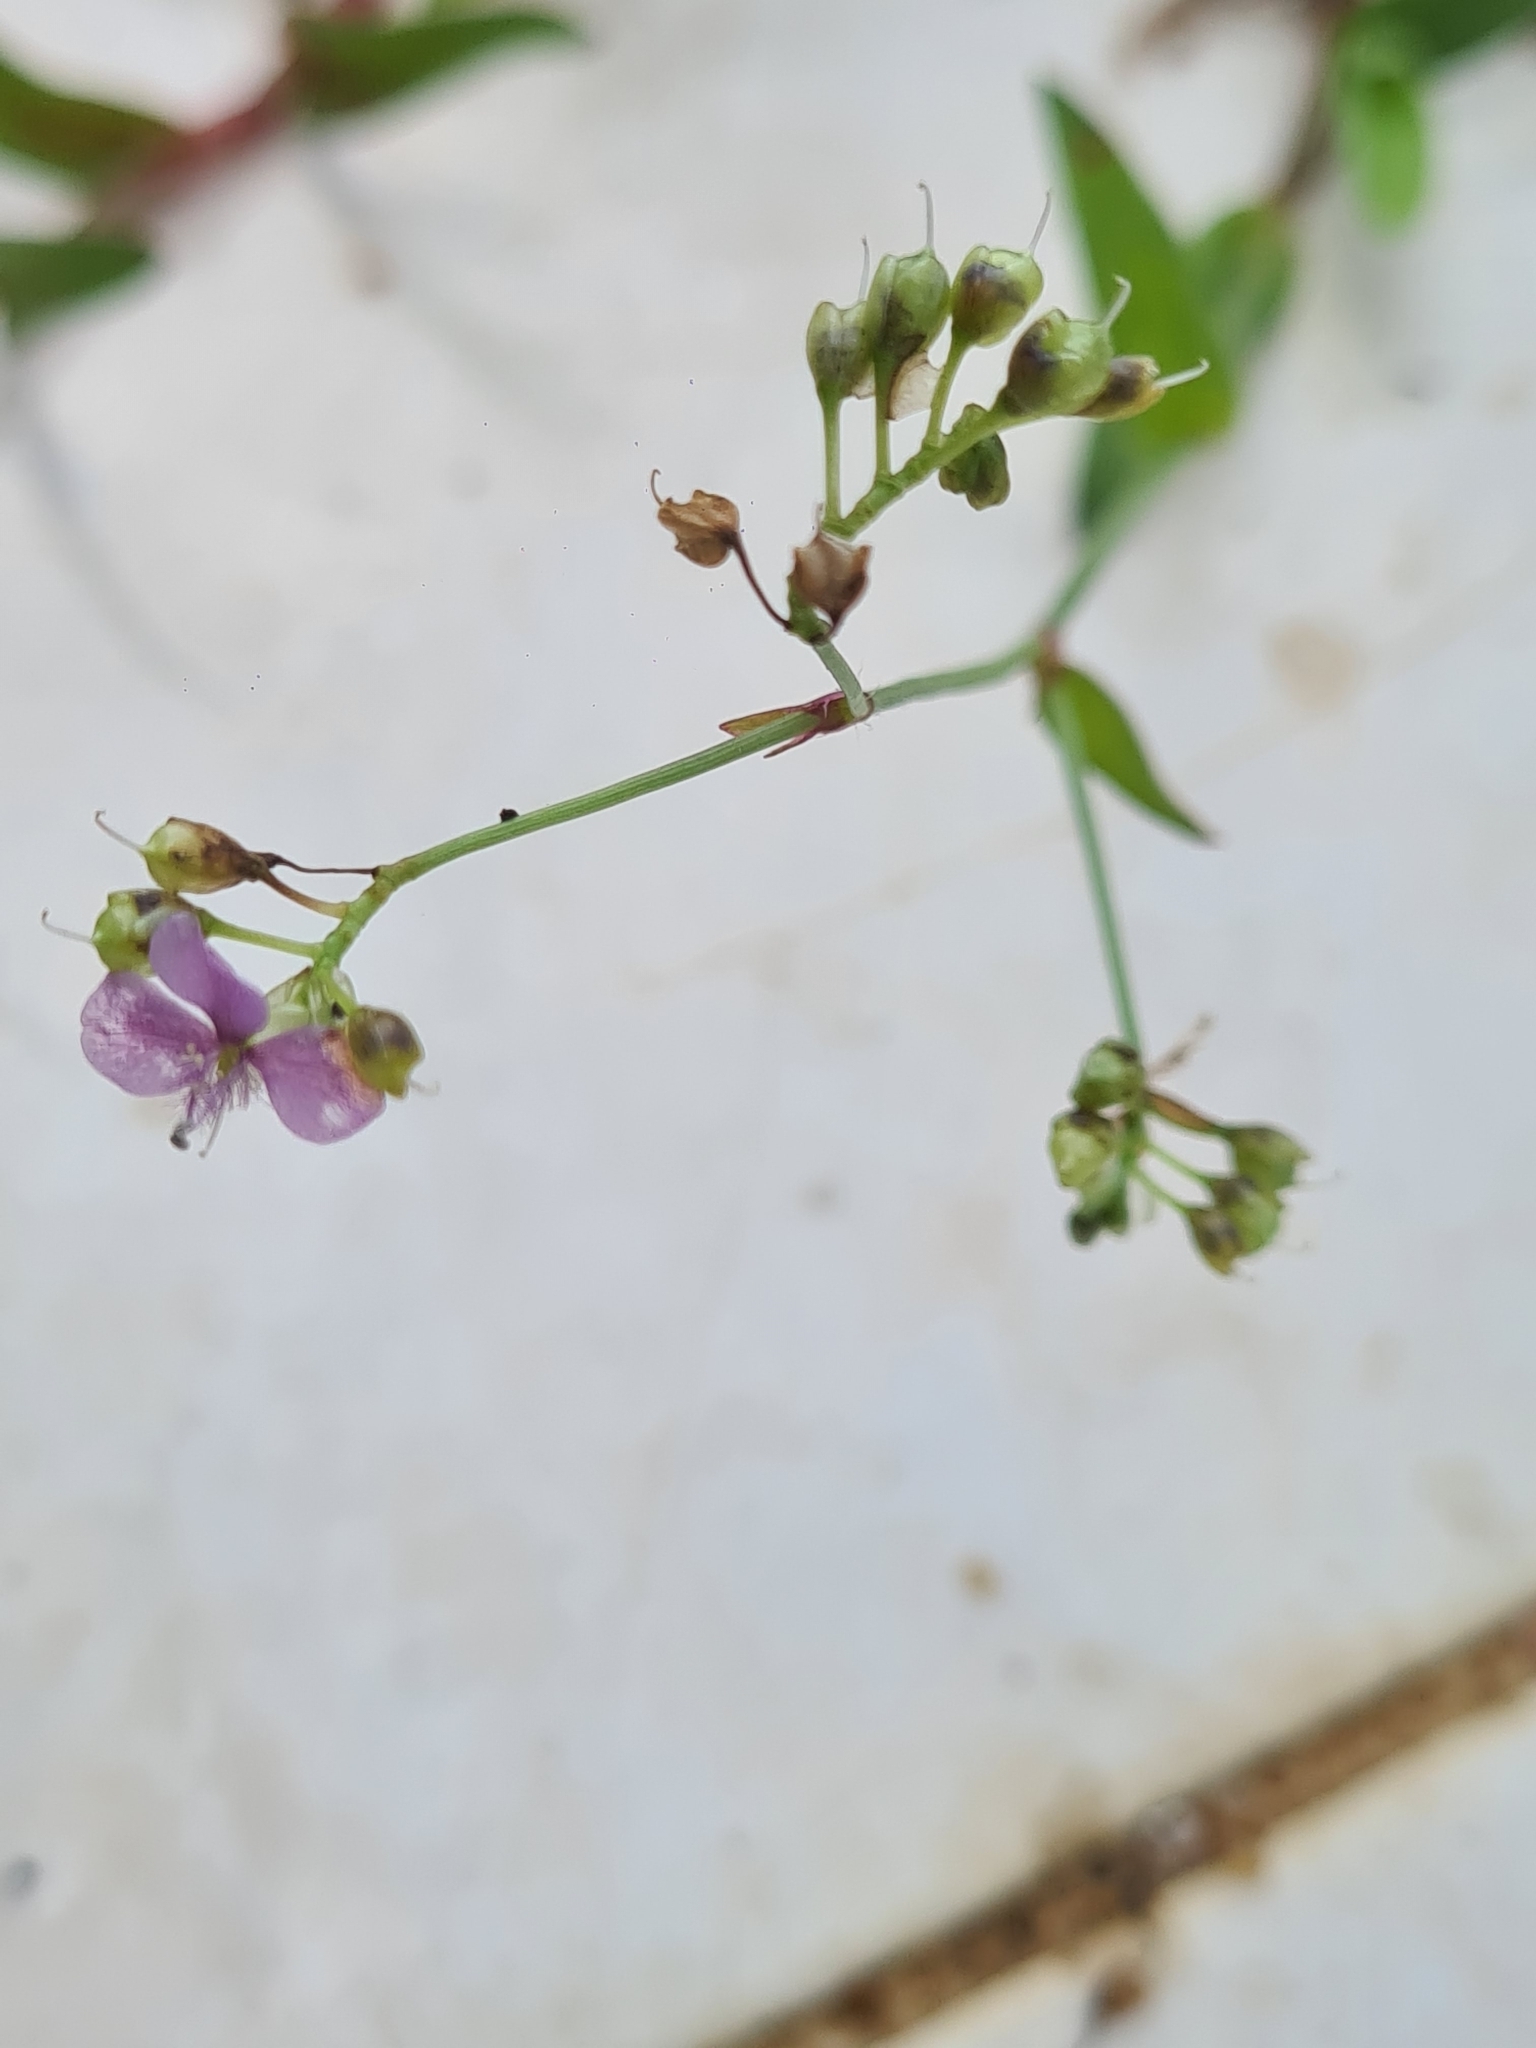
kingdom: Plantae
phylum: Tracheophyta
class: Liliopsida
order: Commelinales
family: Commelinaceae
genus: Murdannia
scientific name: Murdannia nudiflora
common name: Nakedstem dewflower
